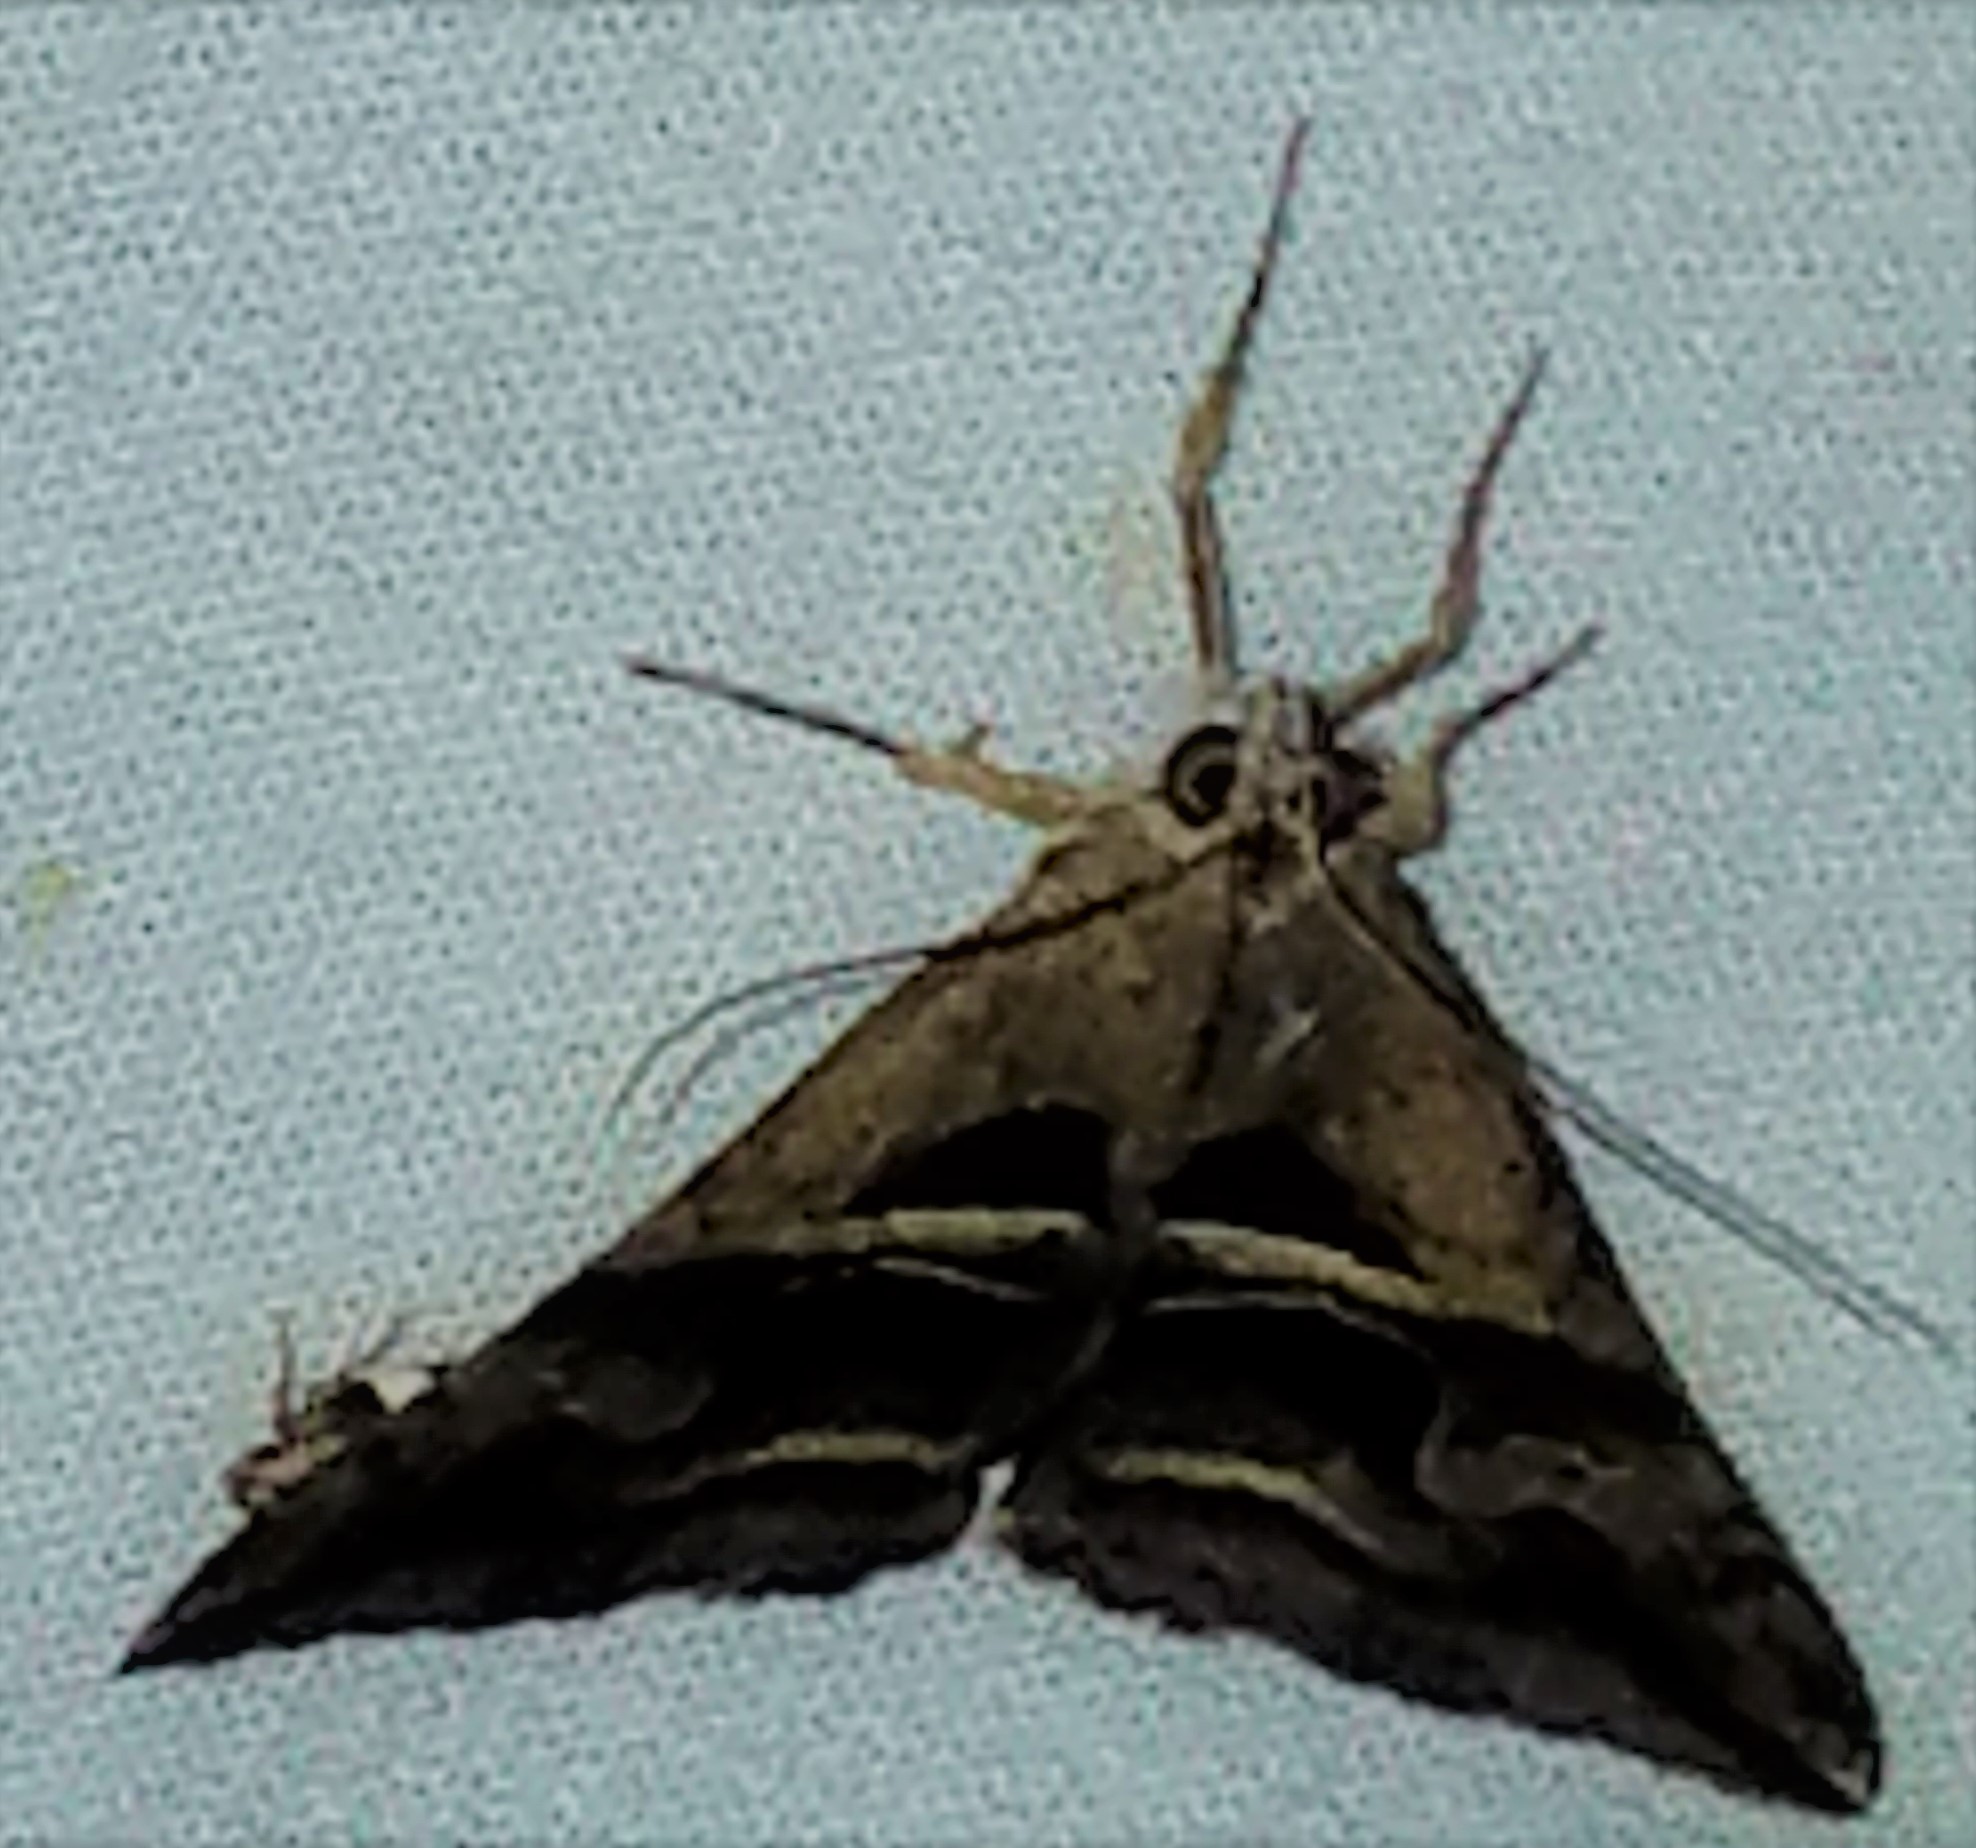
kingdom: Animalia
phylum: Arthropoda
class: Insecta
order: Lepidoptera
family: Erebidae
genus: Melipotis
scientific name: Melipotis cellaris
